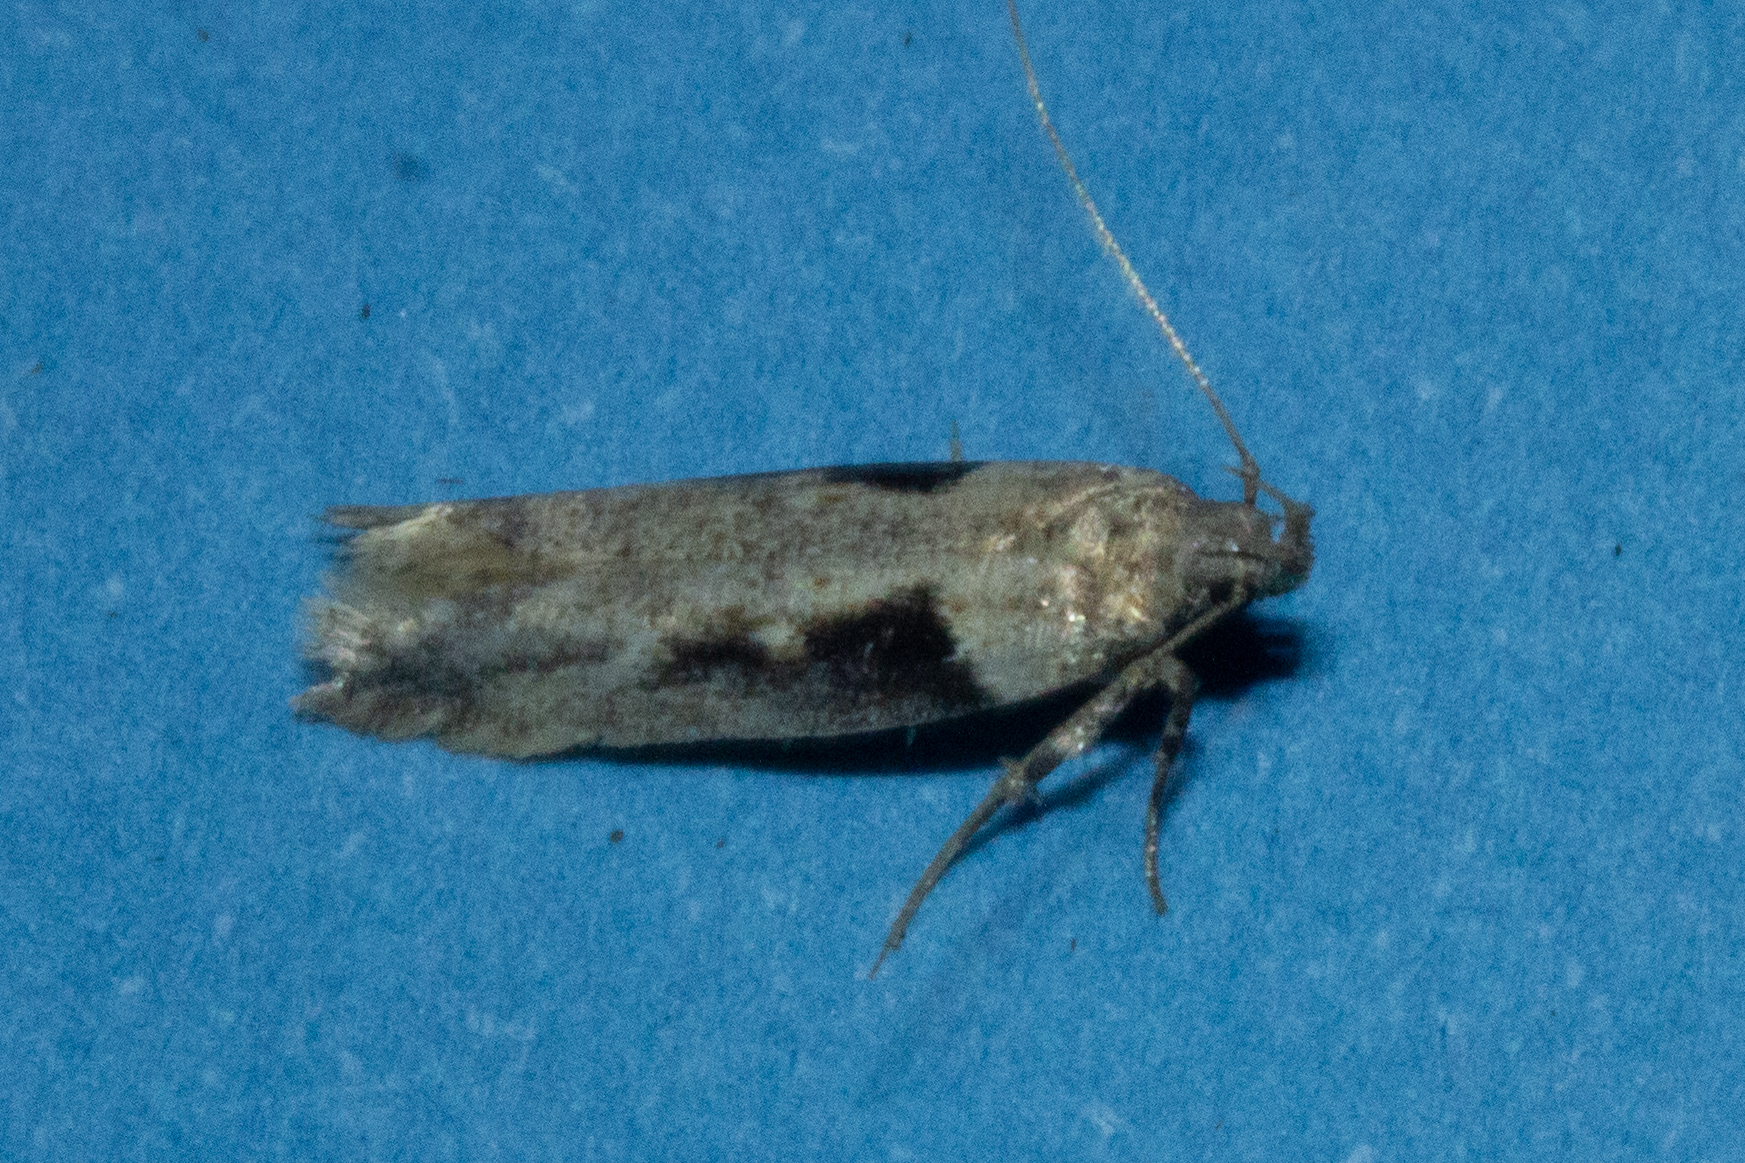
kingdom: Animalia
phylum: Arthropoda
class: Insecta
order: Lepidoptera
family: Gelechiidae
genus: Symmetrischema
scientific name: Symmetrischema tangolias
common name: Moth
